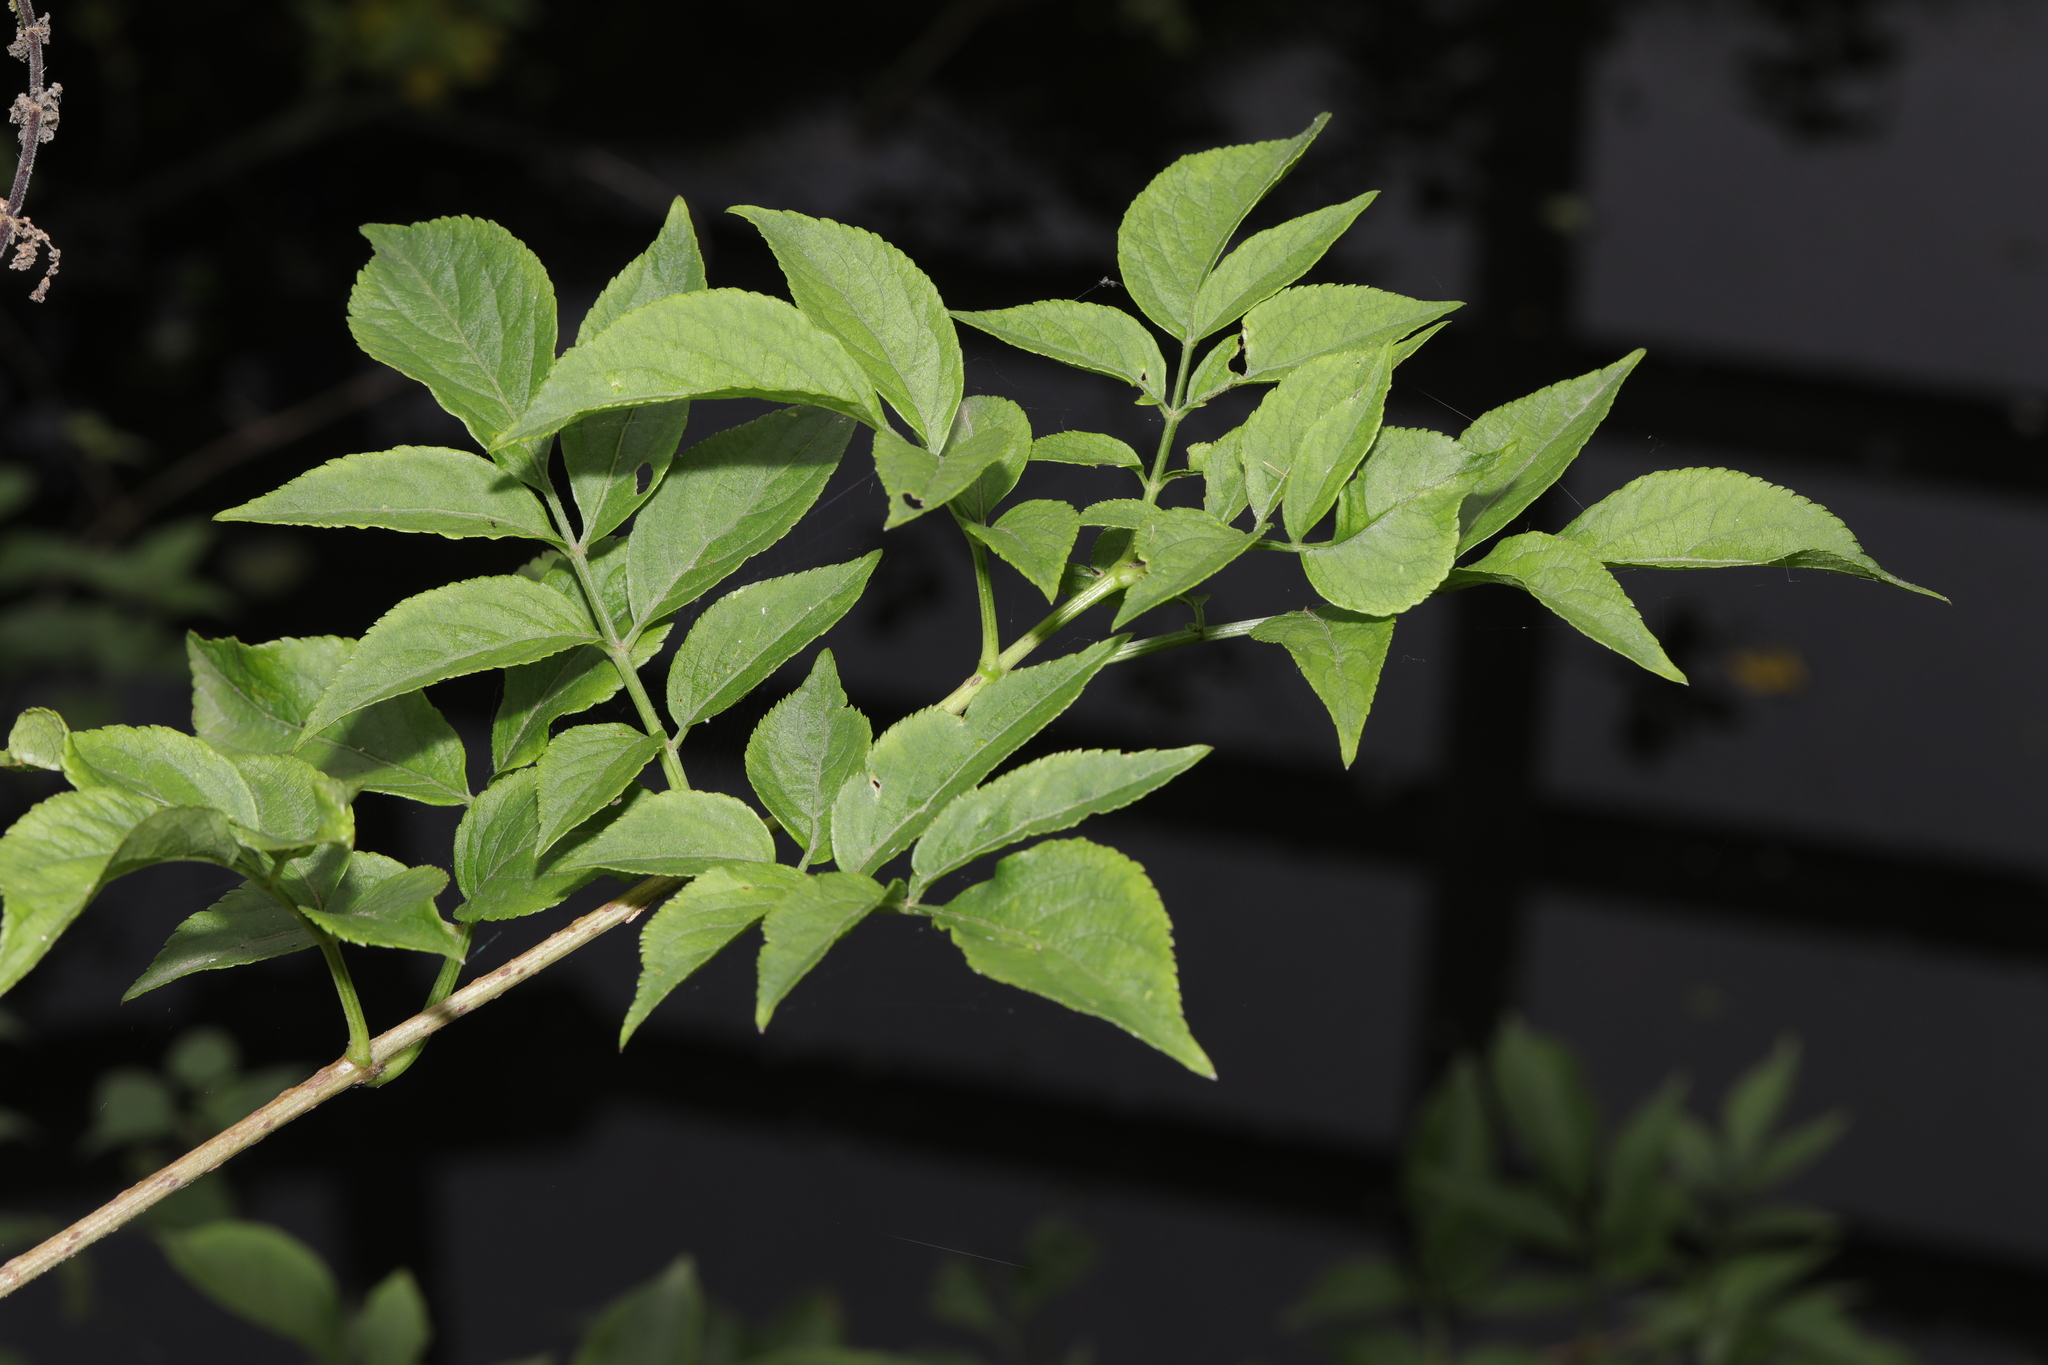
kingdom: Plantae
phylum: Tracheophyta
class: Magnoliopsida
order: Dipsacales
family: Viburnaceae
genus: Sambucus
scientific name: Sambucus nigra
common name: Elder
